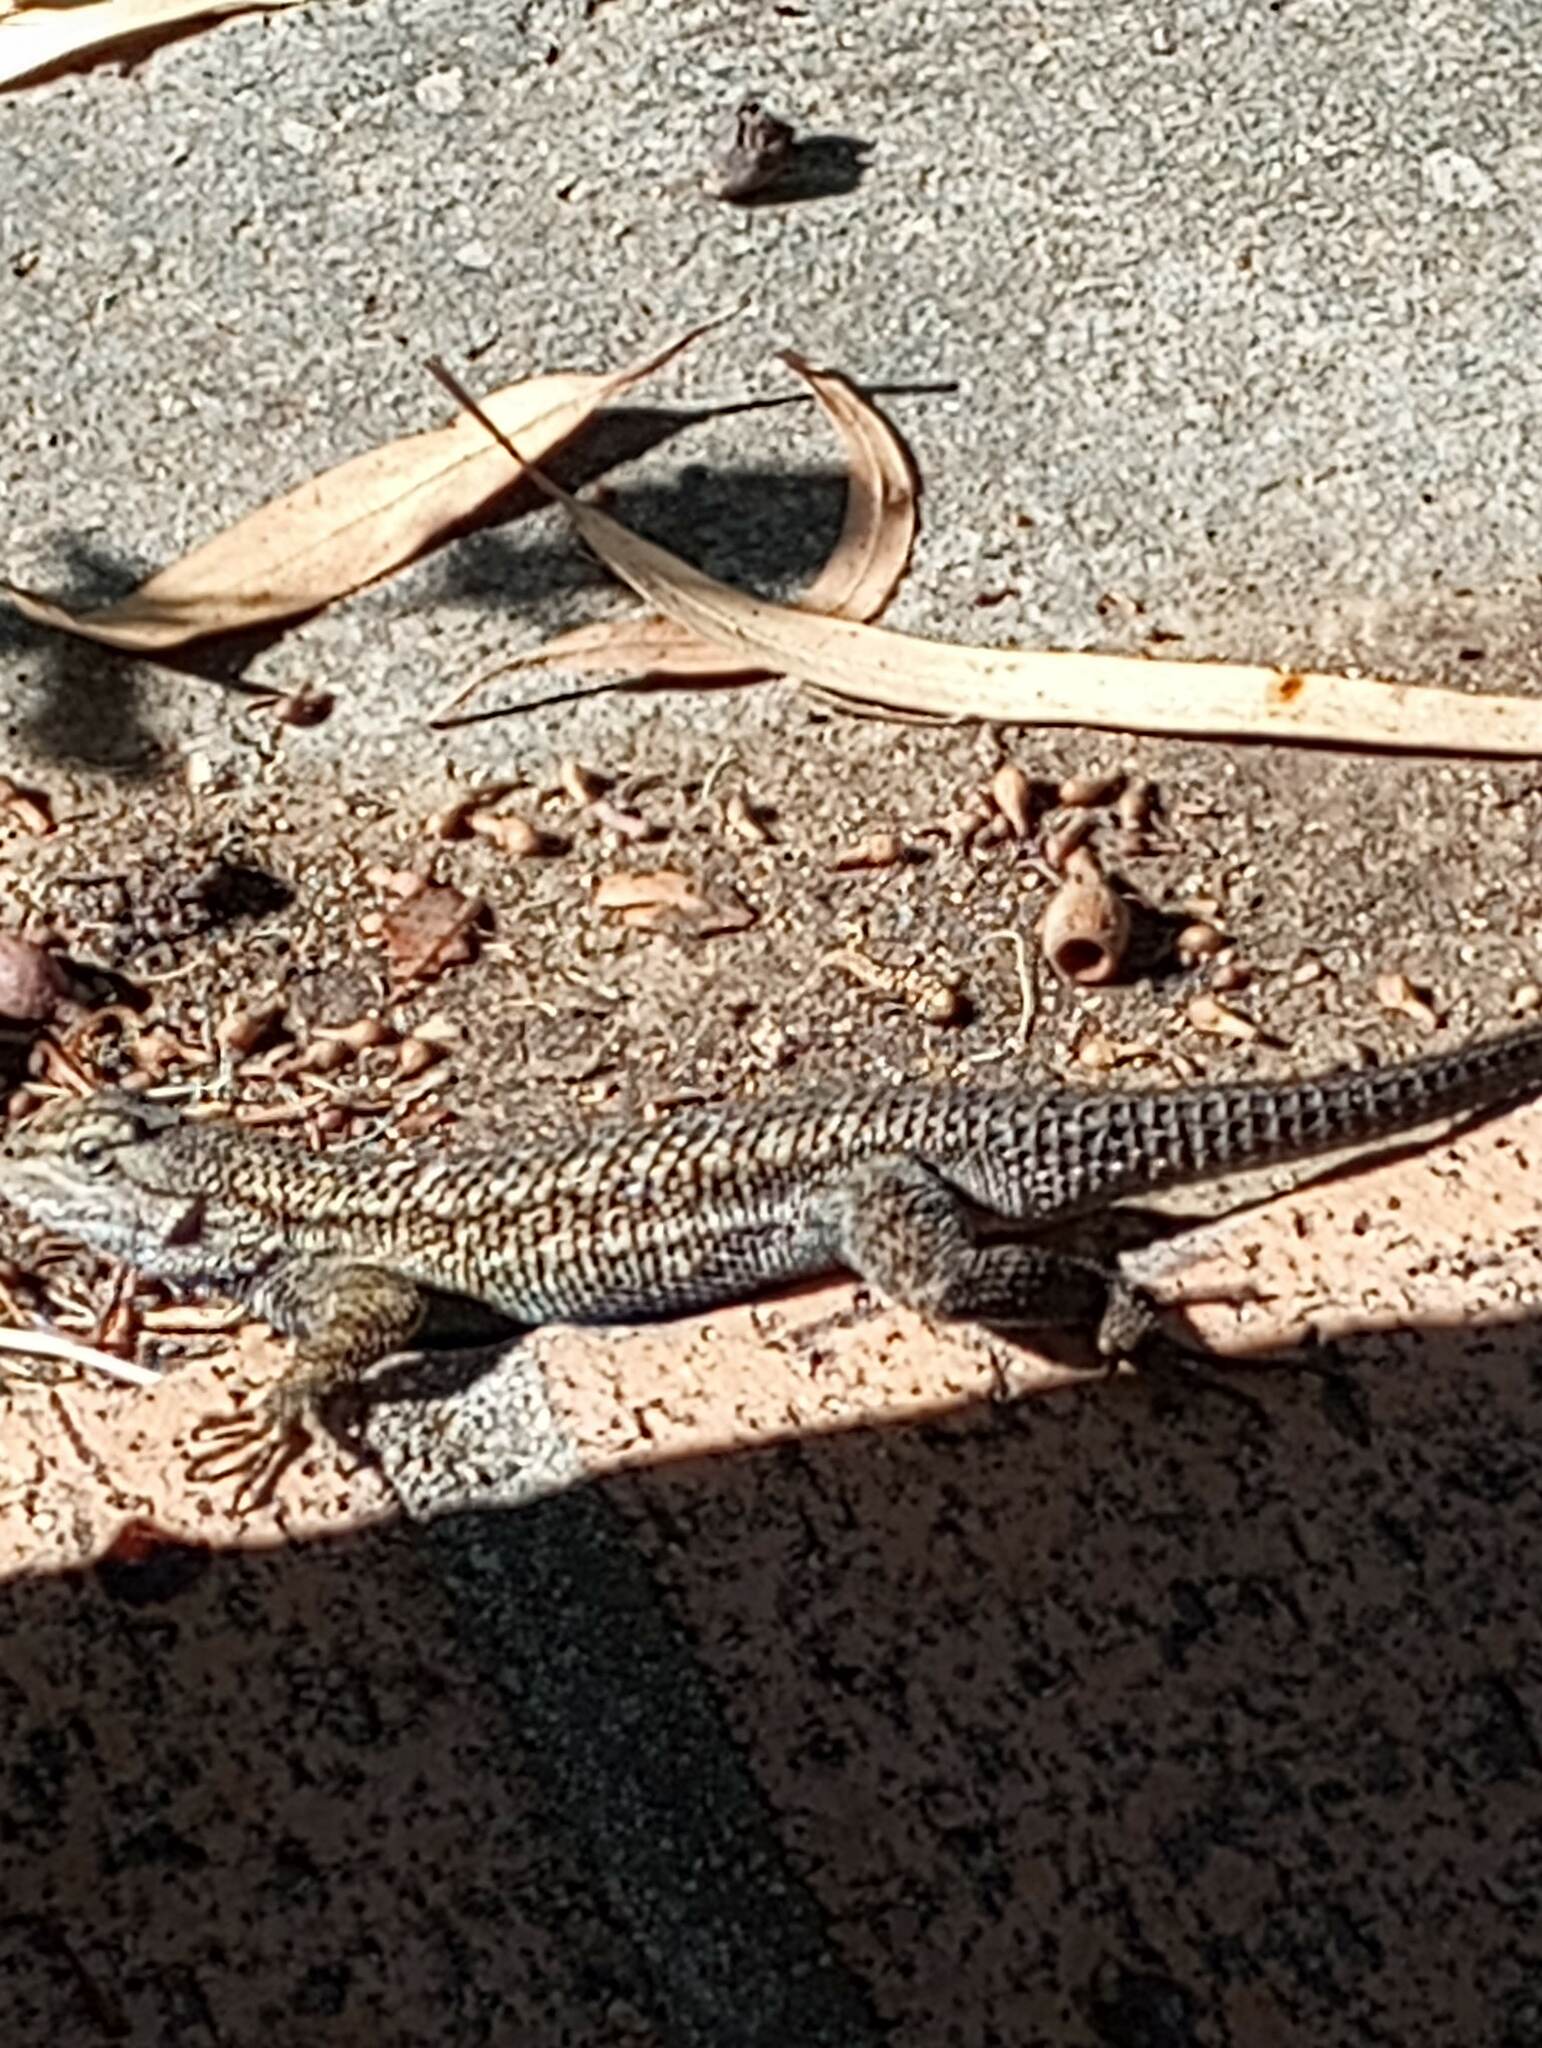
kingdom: Animalia
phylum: Chordata
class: Squamata
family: Phrynosomatidae
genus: Sceloporus
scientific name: Sceloporus occidentalis
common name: Western fence lizard
